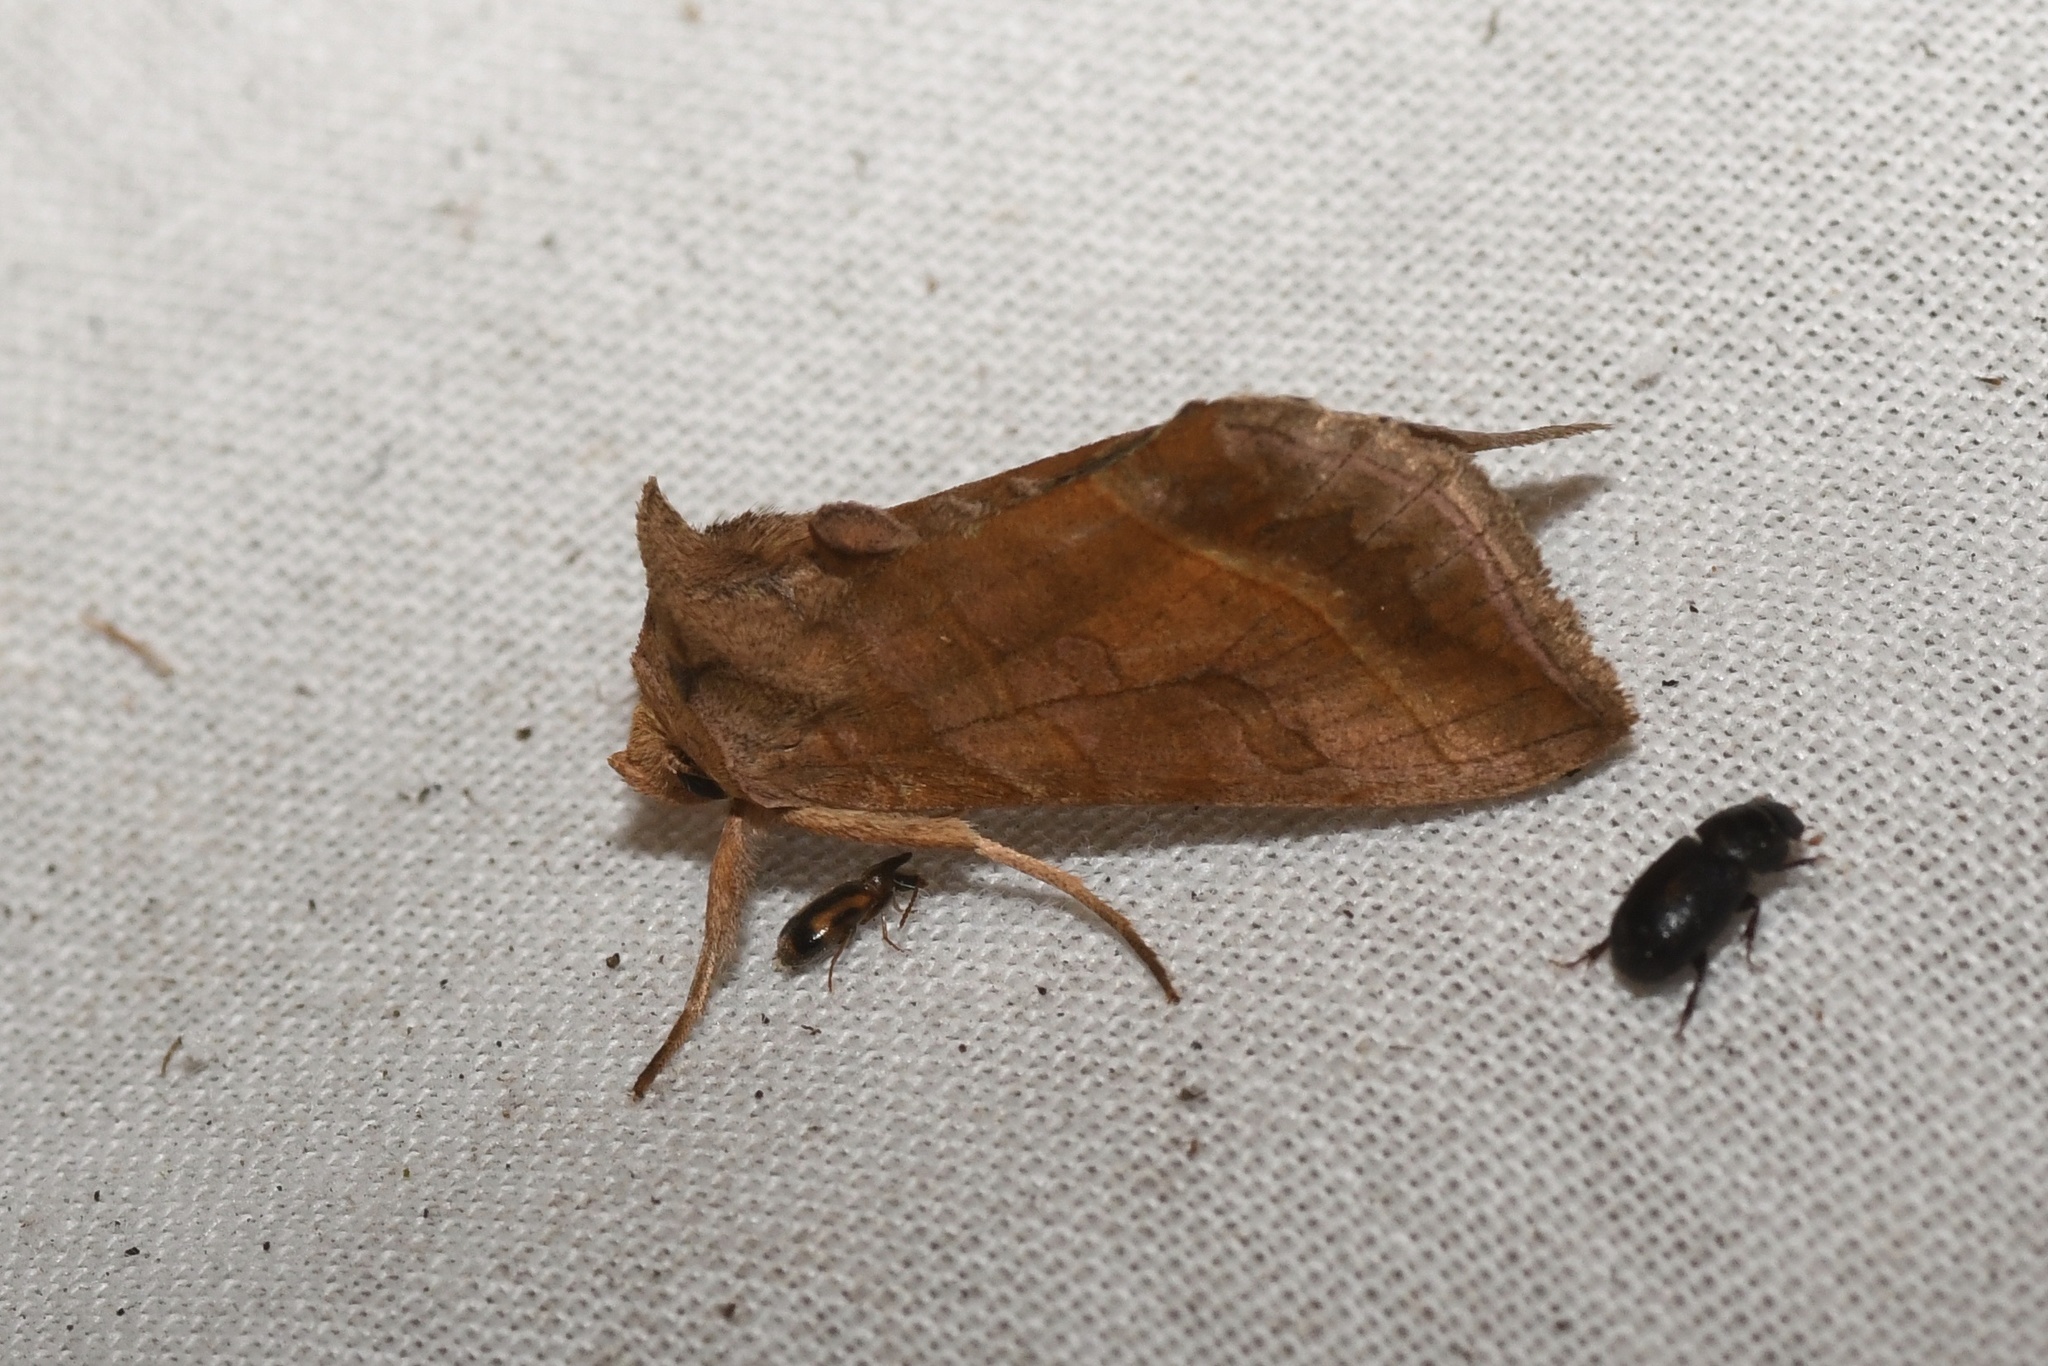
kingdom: Animalia
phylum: Arthropoda
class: Insecta
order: Lepidoptera
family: Noctuidae
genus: Diachrysia
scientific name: Diachrysia aereoides
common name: Dark-spotted looper moth
